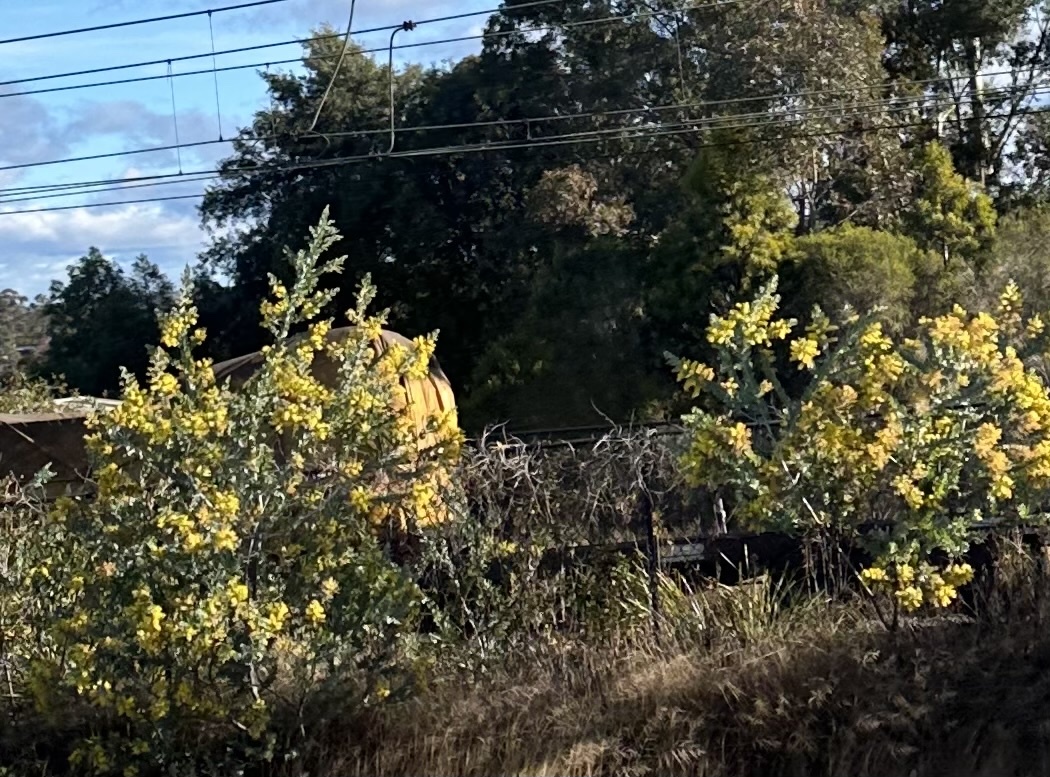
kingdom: Plantae
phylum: Tracheophyta
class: Magnoliopsida
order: Fabales
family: Fabaceae
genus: Acacia
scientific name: Acacia podalyriifolia
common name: Pearl wattle
